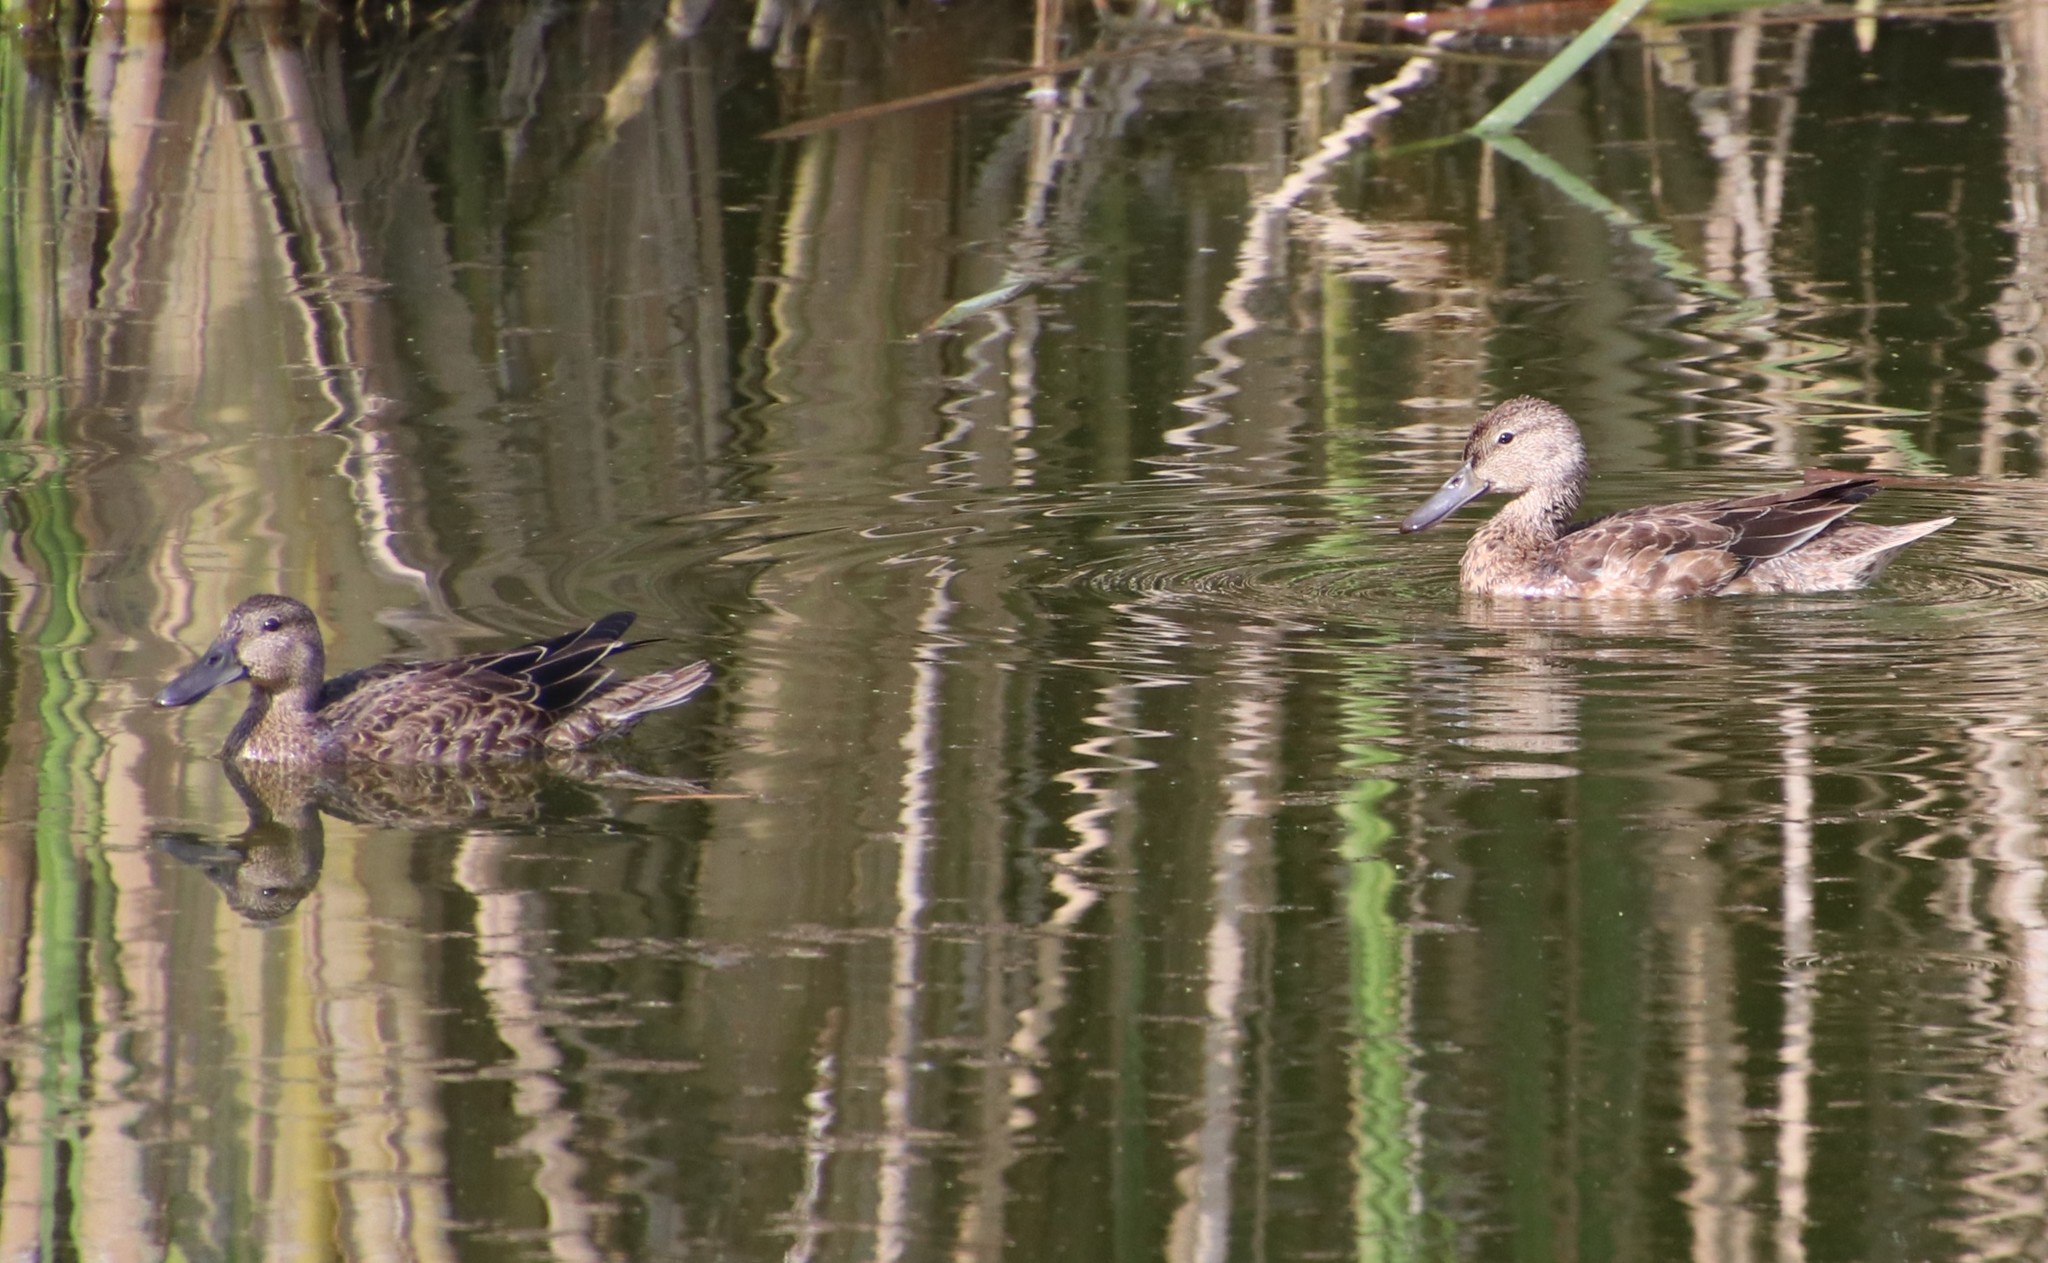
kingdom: Animalia
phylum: Chordata
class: Aves
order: Anseriformes
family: Anatidae
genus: Spatula
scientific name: Spatula cyanoptera
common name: Cinnamon teal
